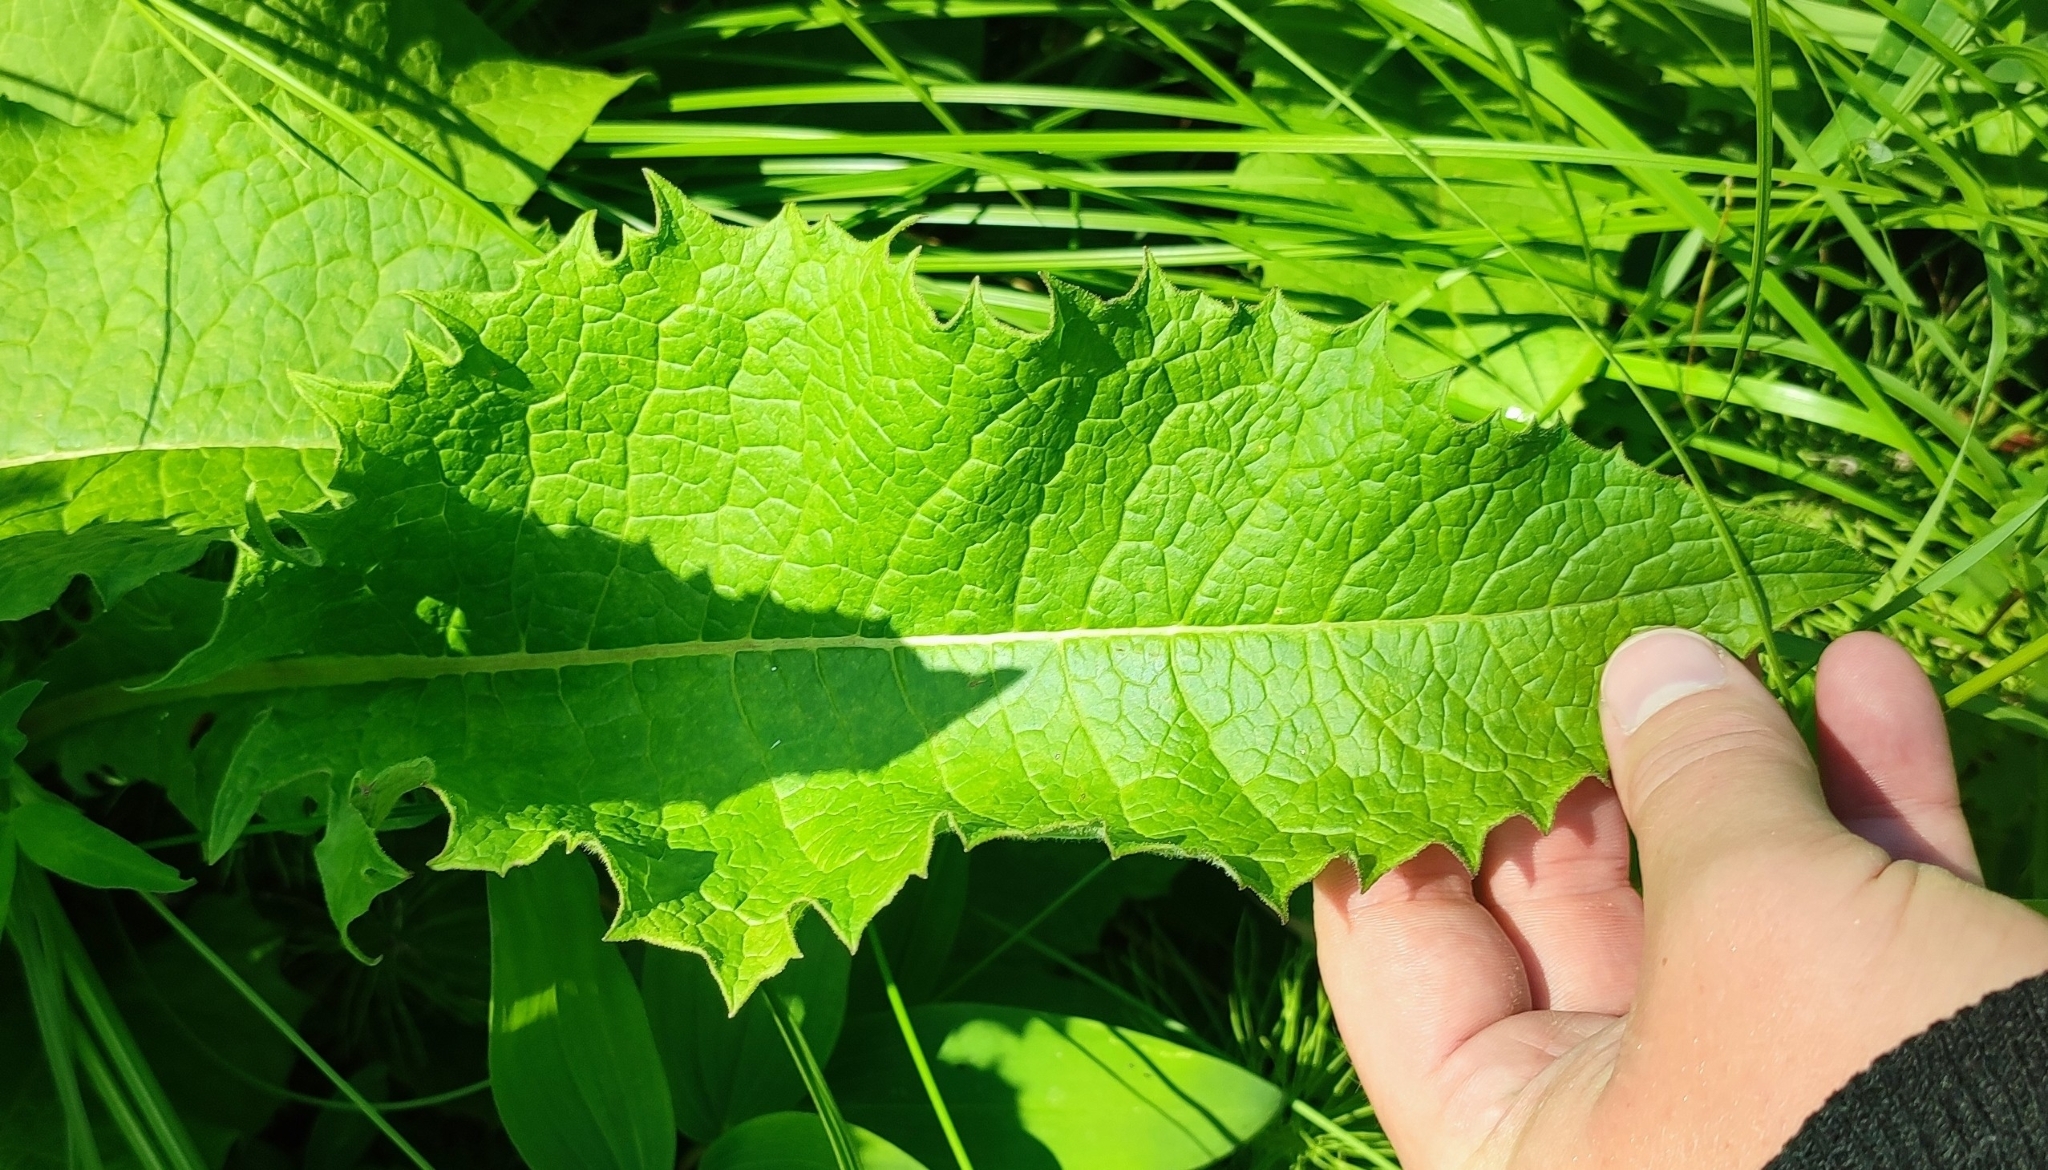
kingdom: Plantae
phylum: Tracheophyta
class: Magnoliopsida
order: Asterales
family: Asteraceae
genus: Crepis
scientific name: Crepis sibirica
